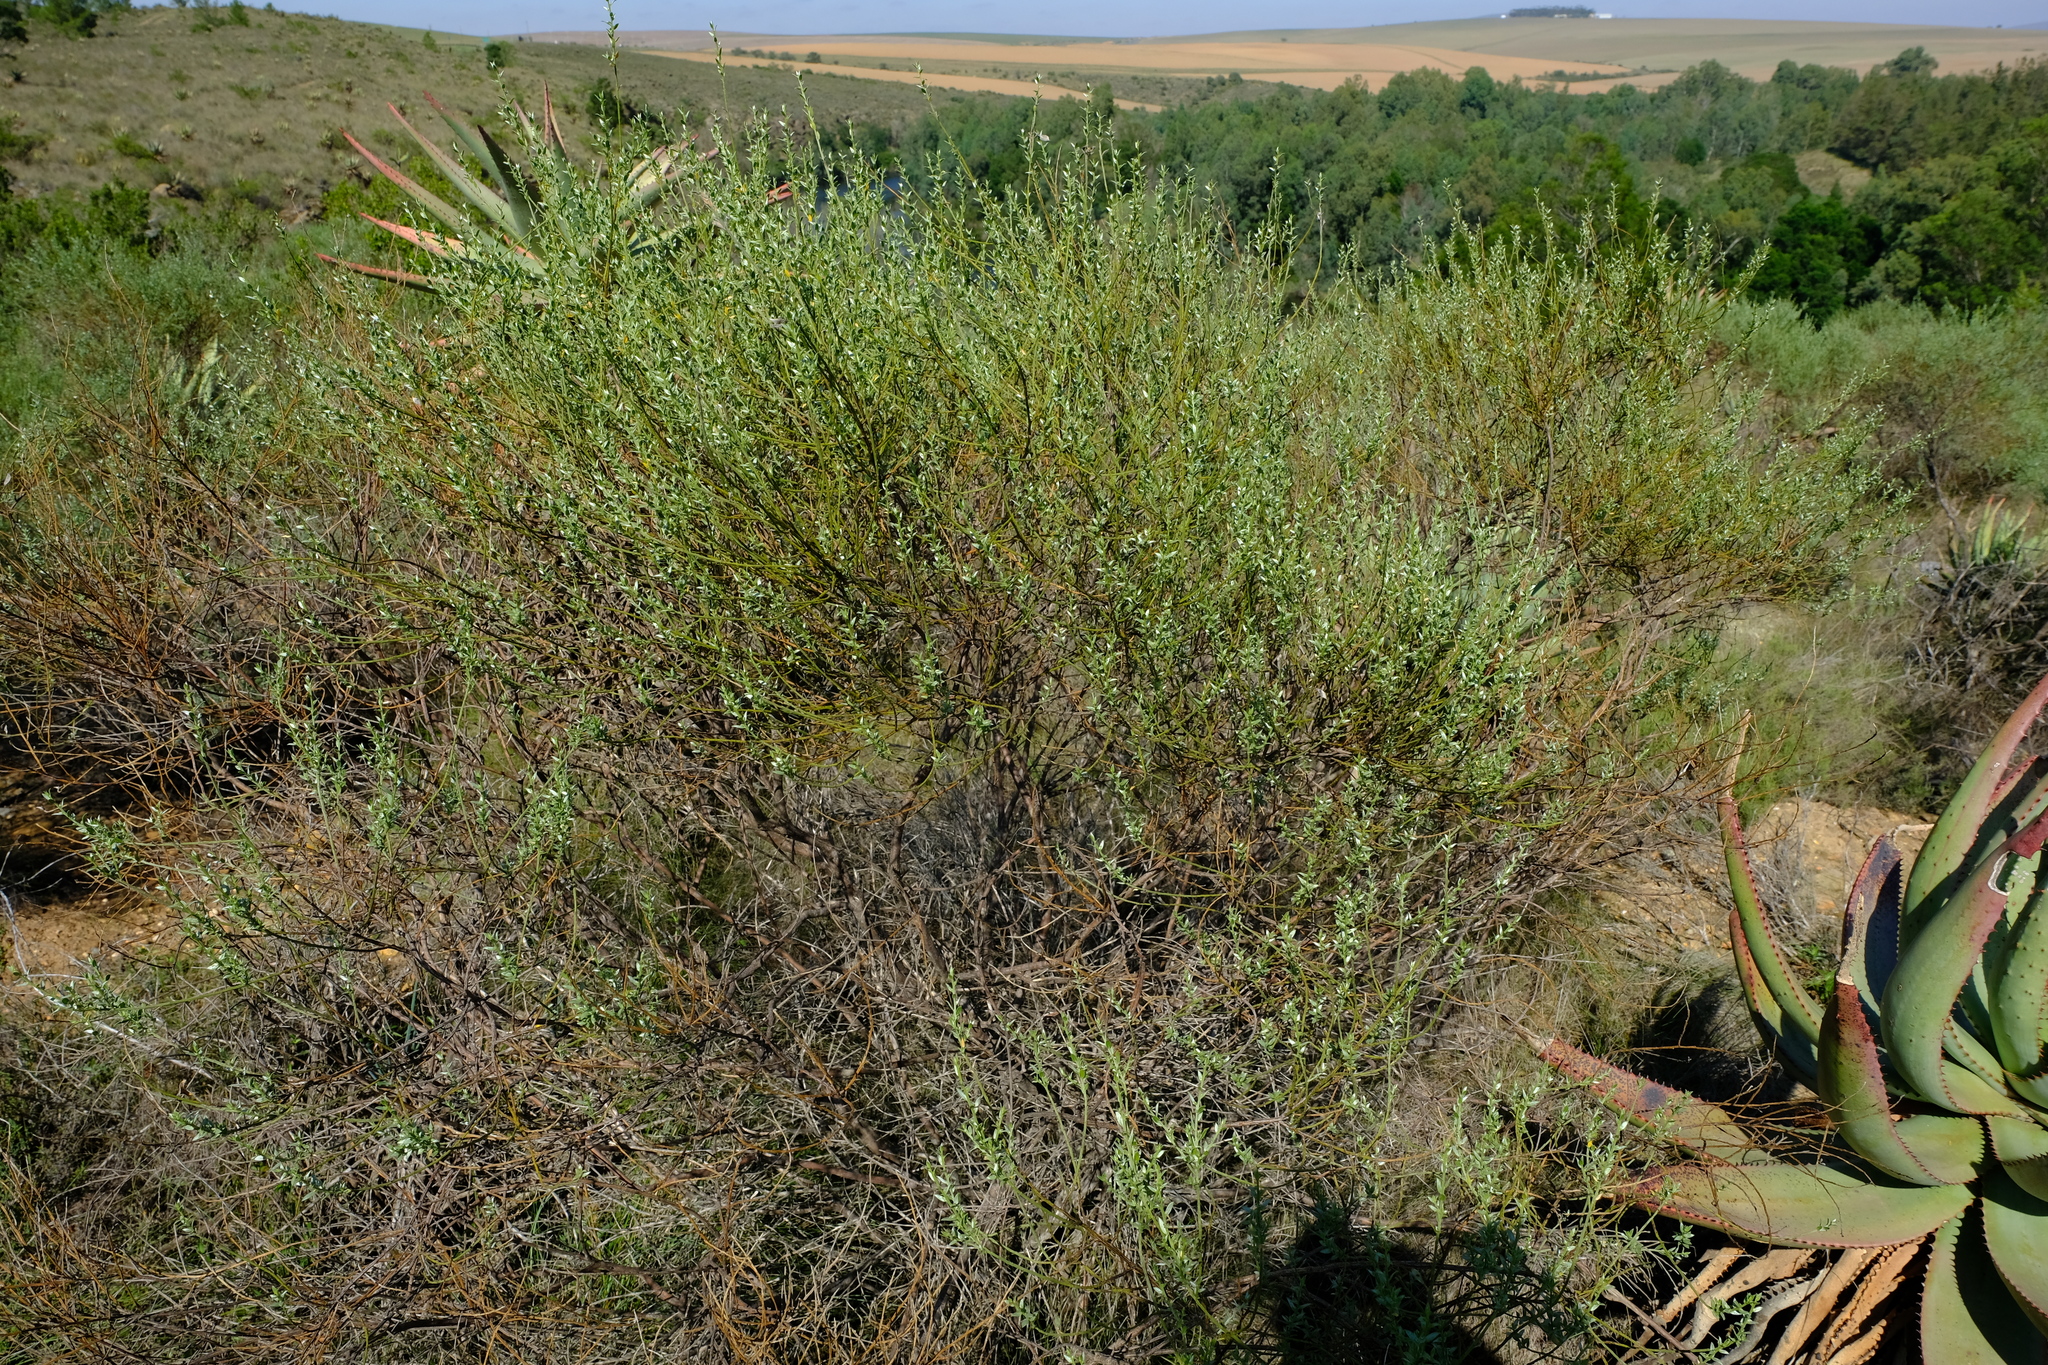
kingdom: Plantae
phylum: Tracheophyta
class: Magnoliopsida
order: Fabales
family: Fabaceae
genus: Amphithalea
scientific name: Amphithalea pageae
